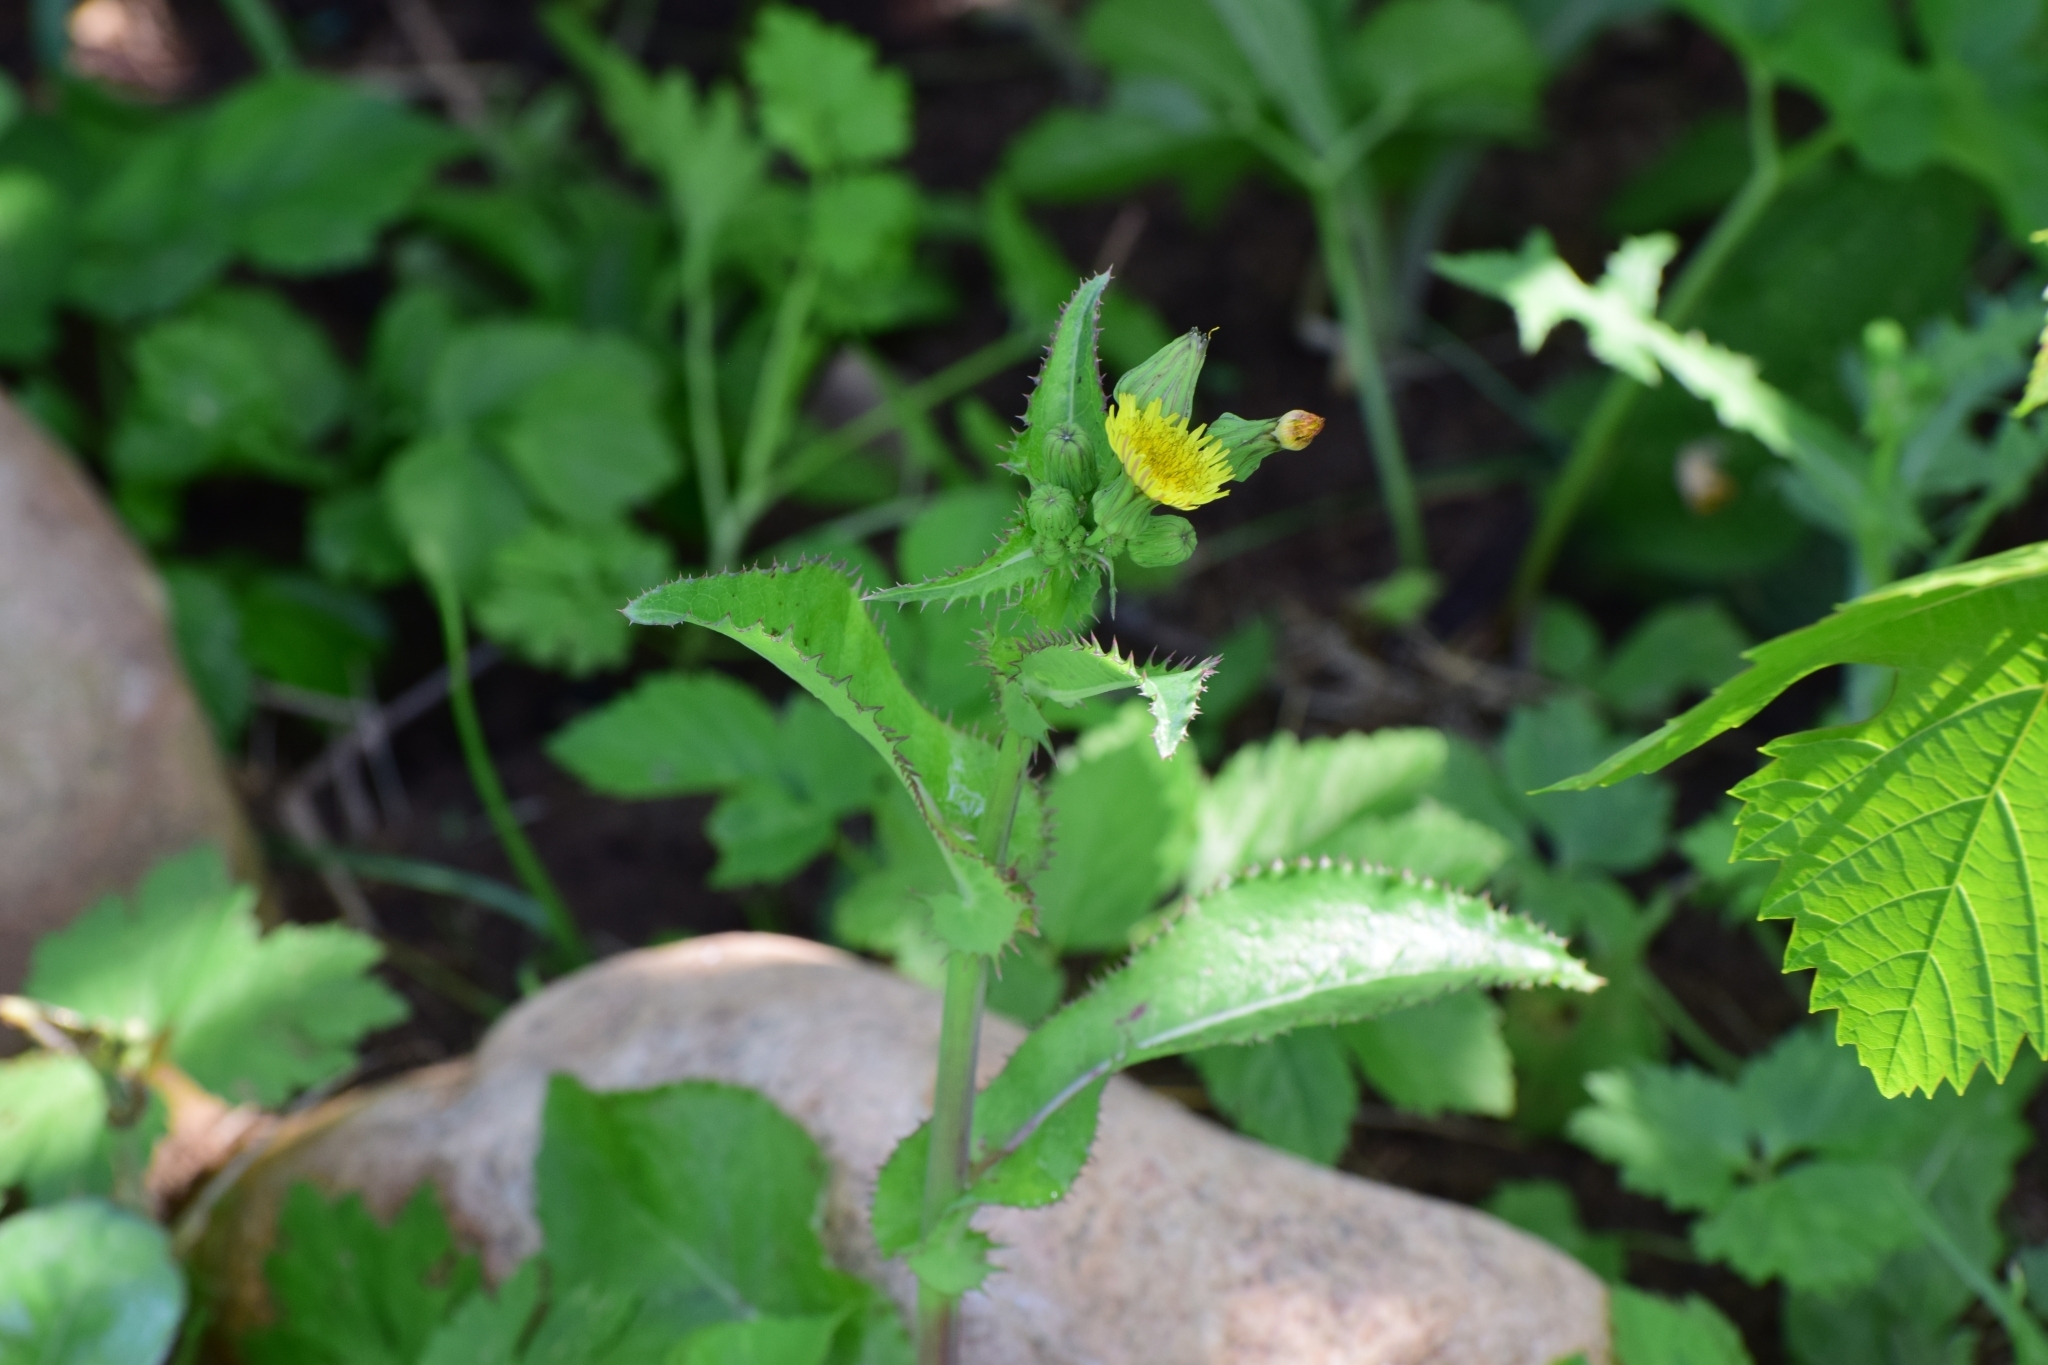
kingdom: Plantae
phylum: Tracheophyta
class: Magnoliopsida
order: Asterales
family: Asteraceae
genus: Sonchus
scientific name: Sonchus asper
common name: Prickly sow-thistle
